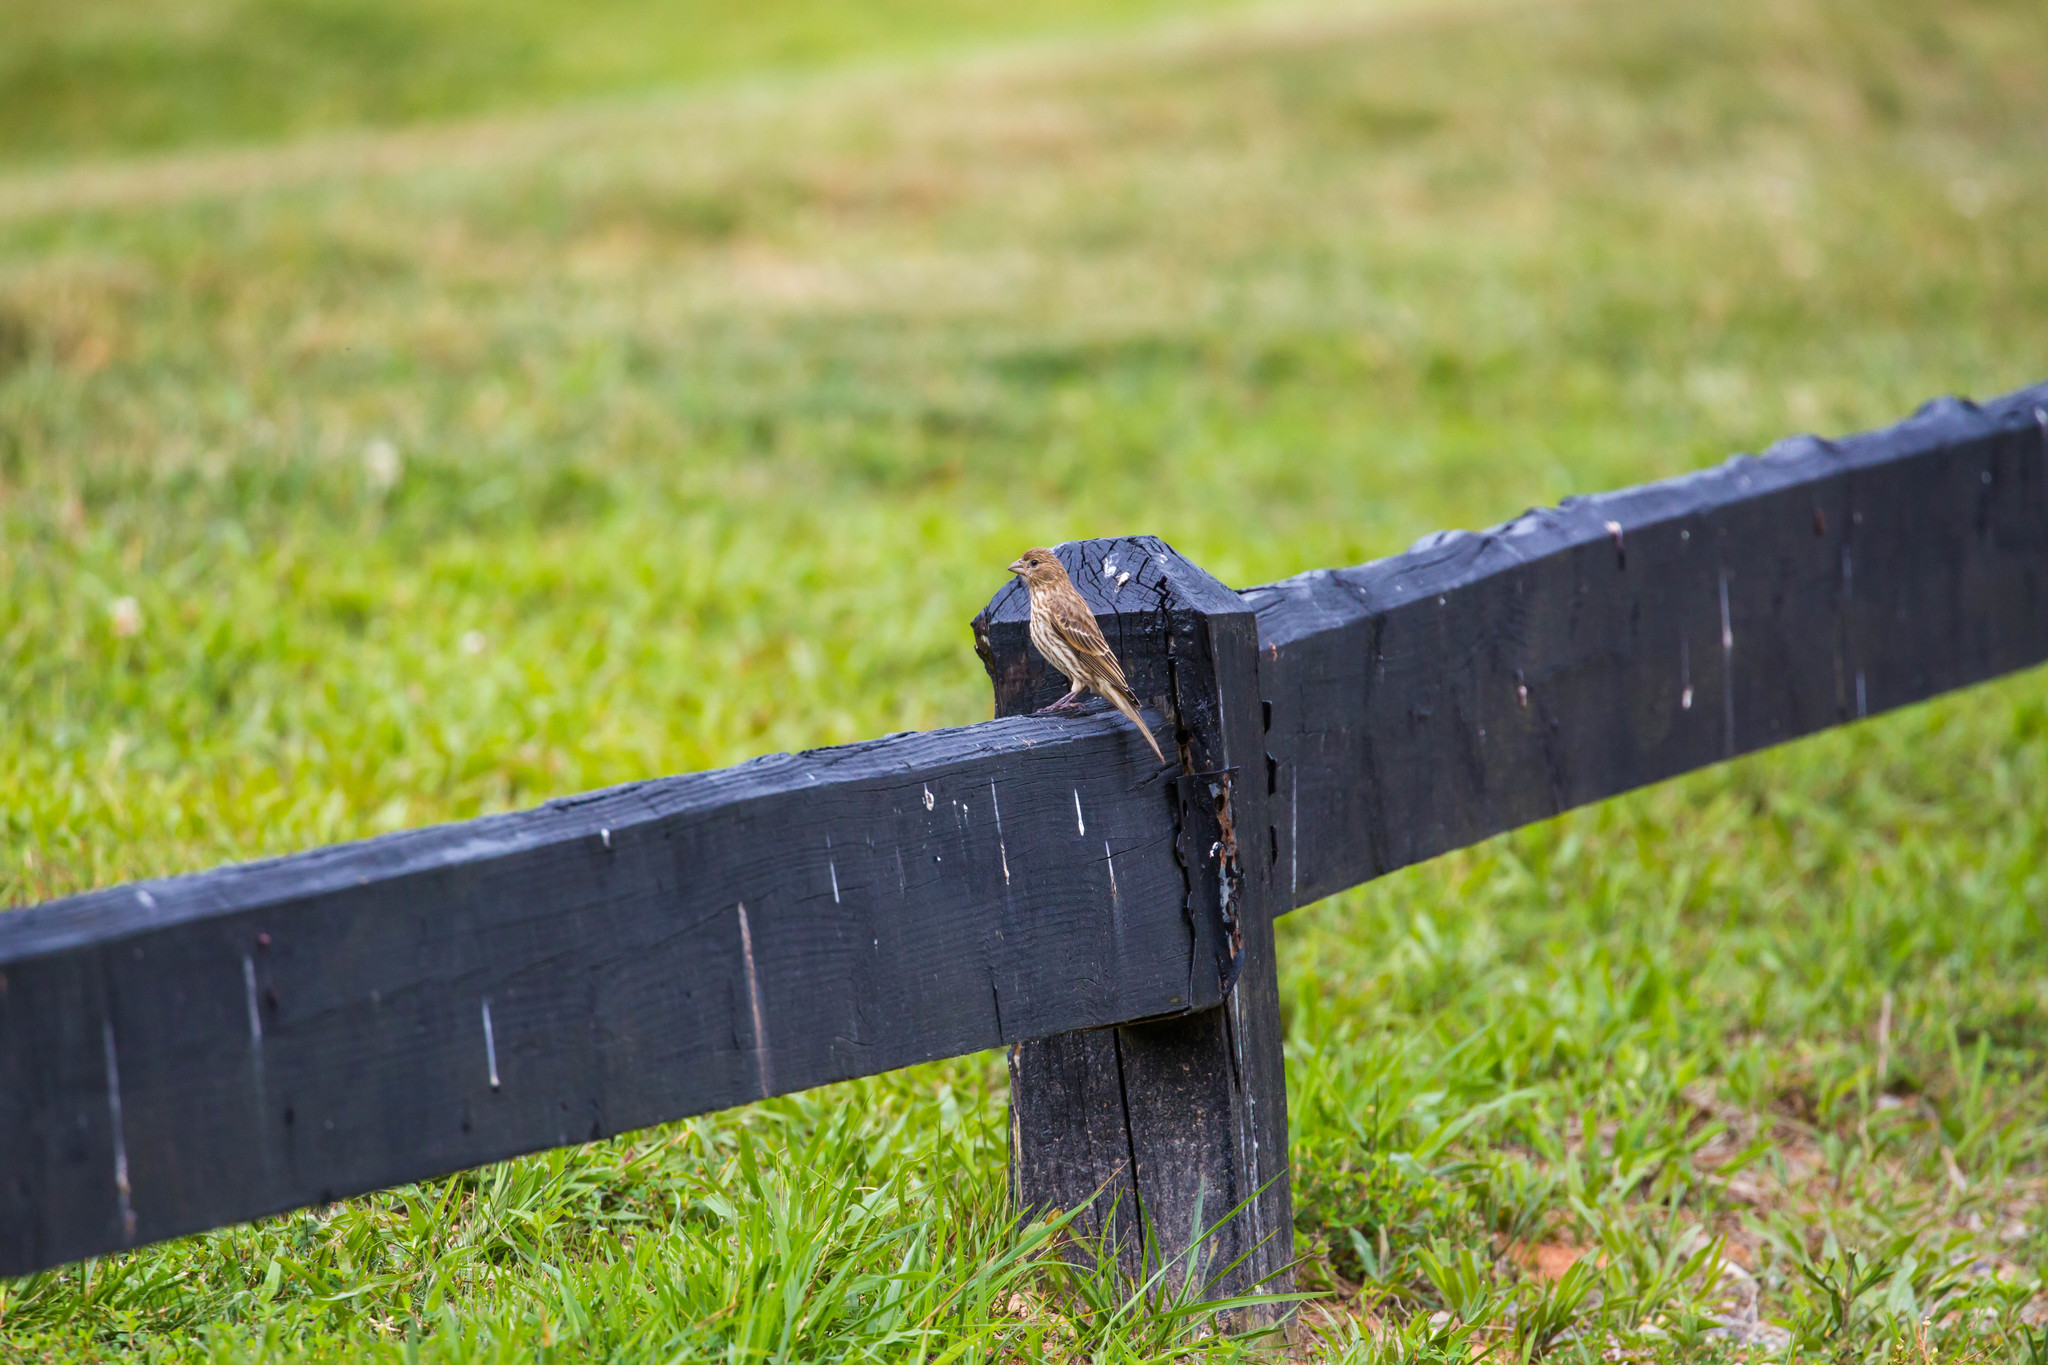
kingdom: Animalia
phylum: Chordata
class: Aves
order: Passeriformes
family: Fringillidae
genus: Haemorhous
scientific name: Haemorhous mexicanus
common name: House finch
